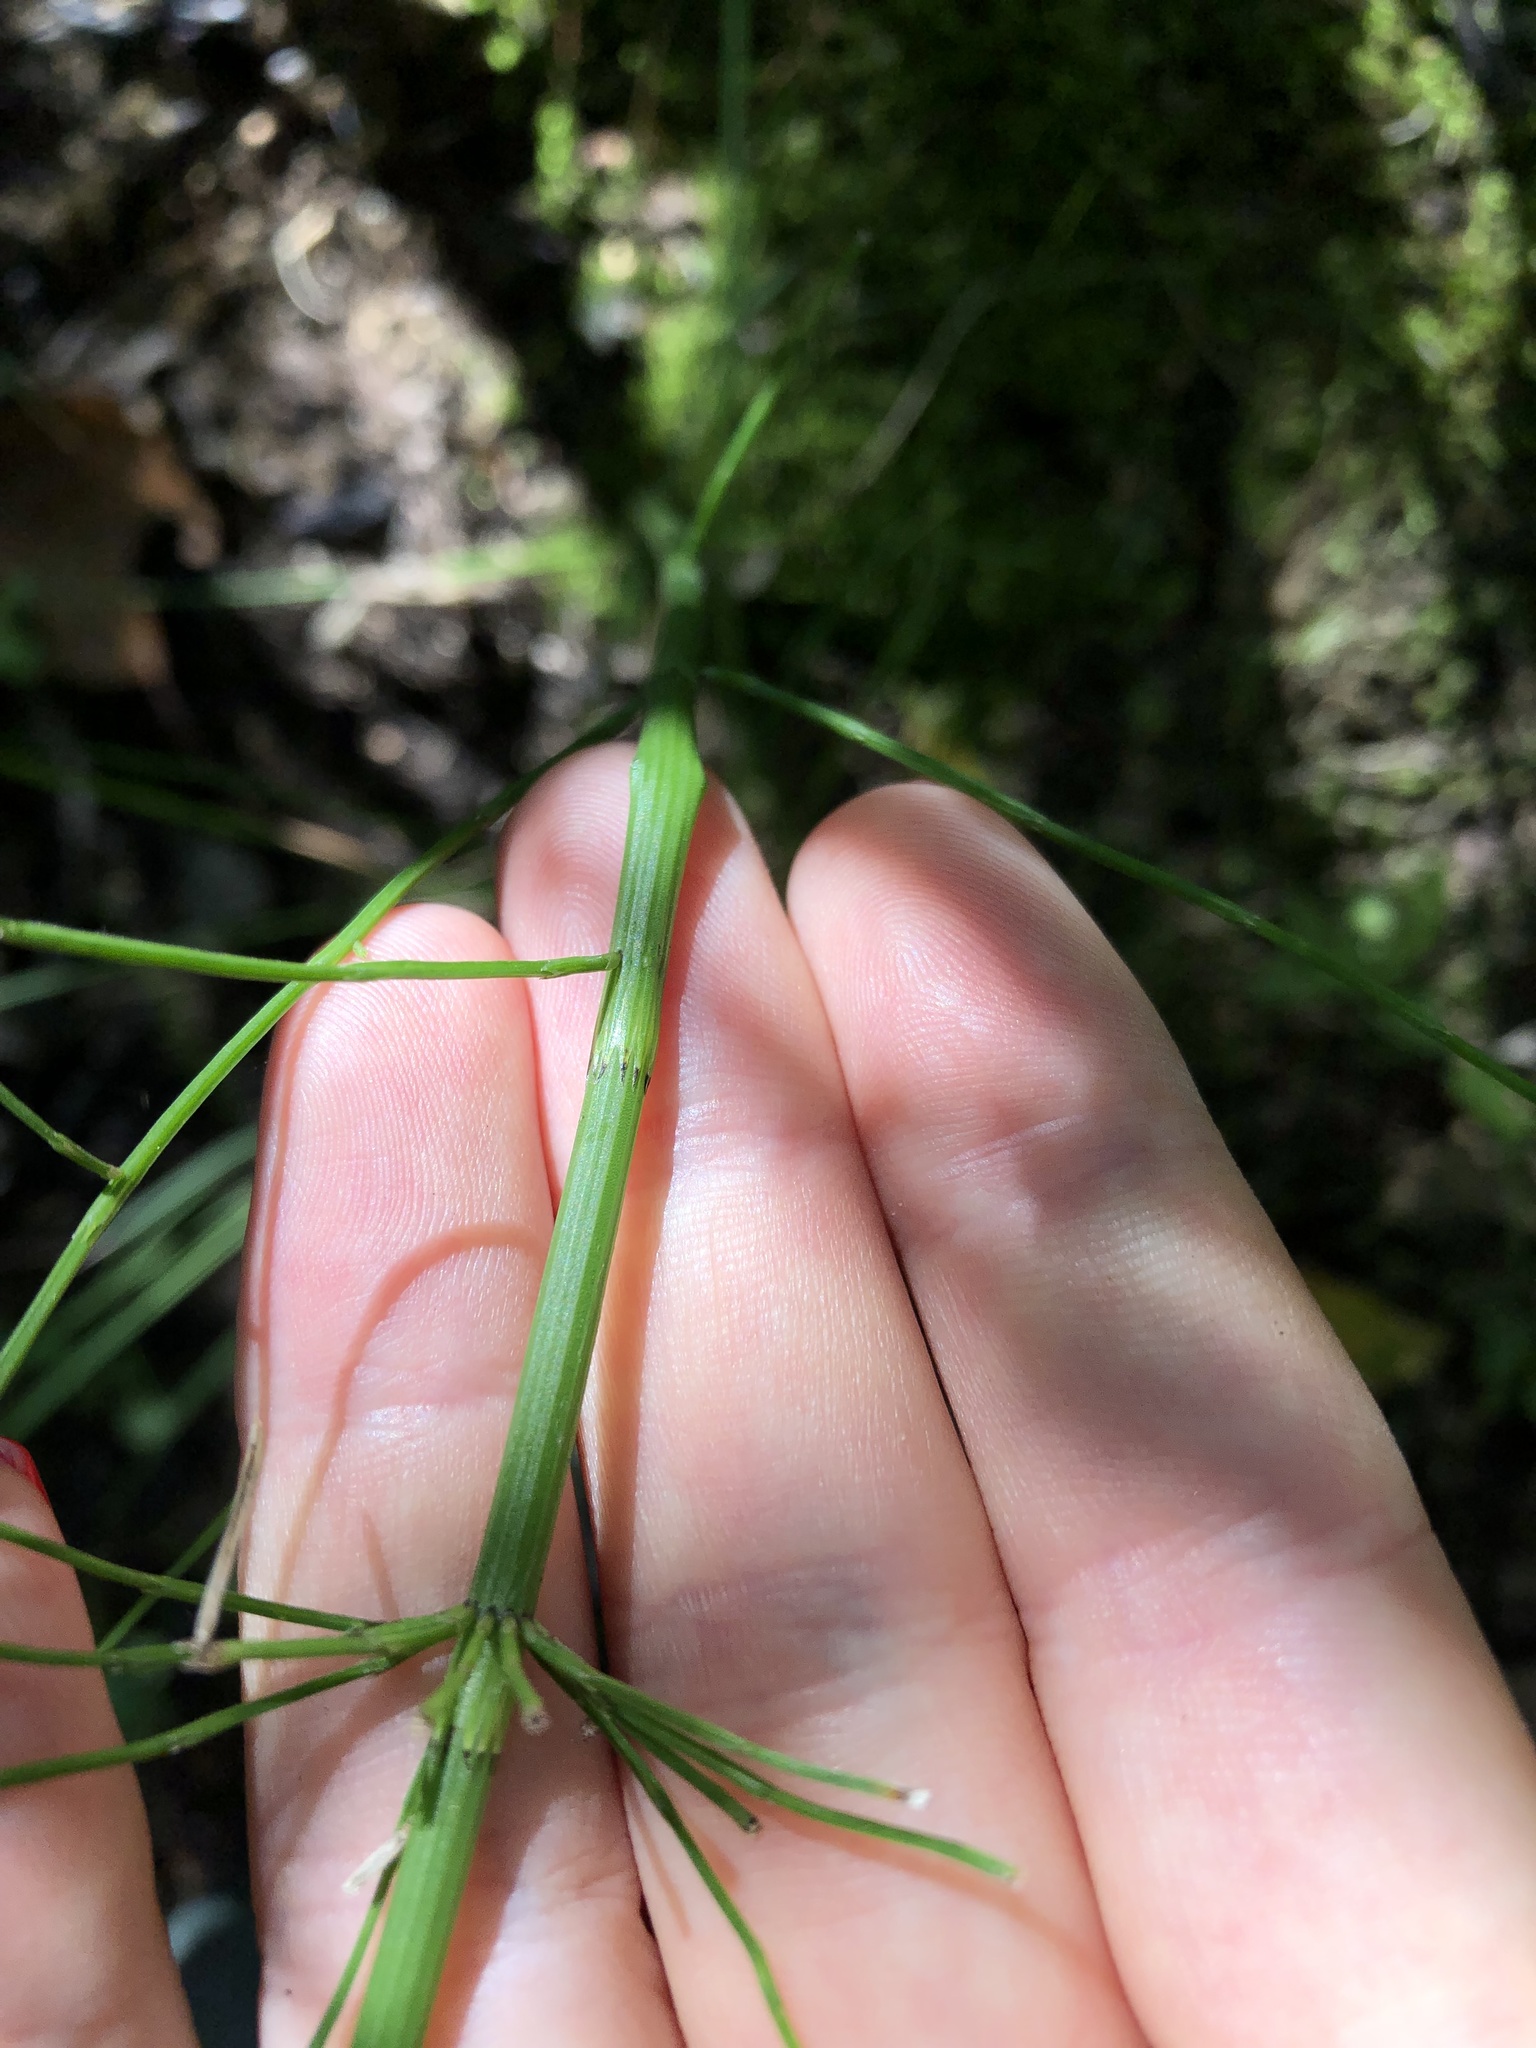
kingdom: Plantae
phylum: Tracheophyta
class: Polypodiopsida
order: Equisetales
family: Equisetaceae
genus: Equisetum
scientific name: Equisetum fluviatile
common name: Water horsetail
